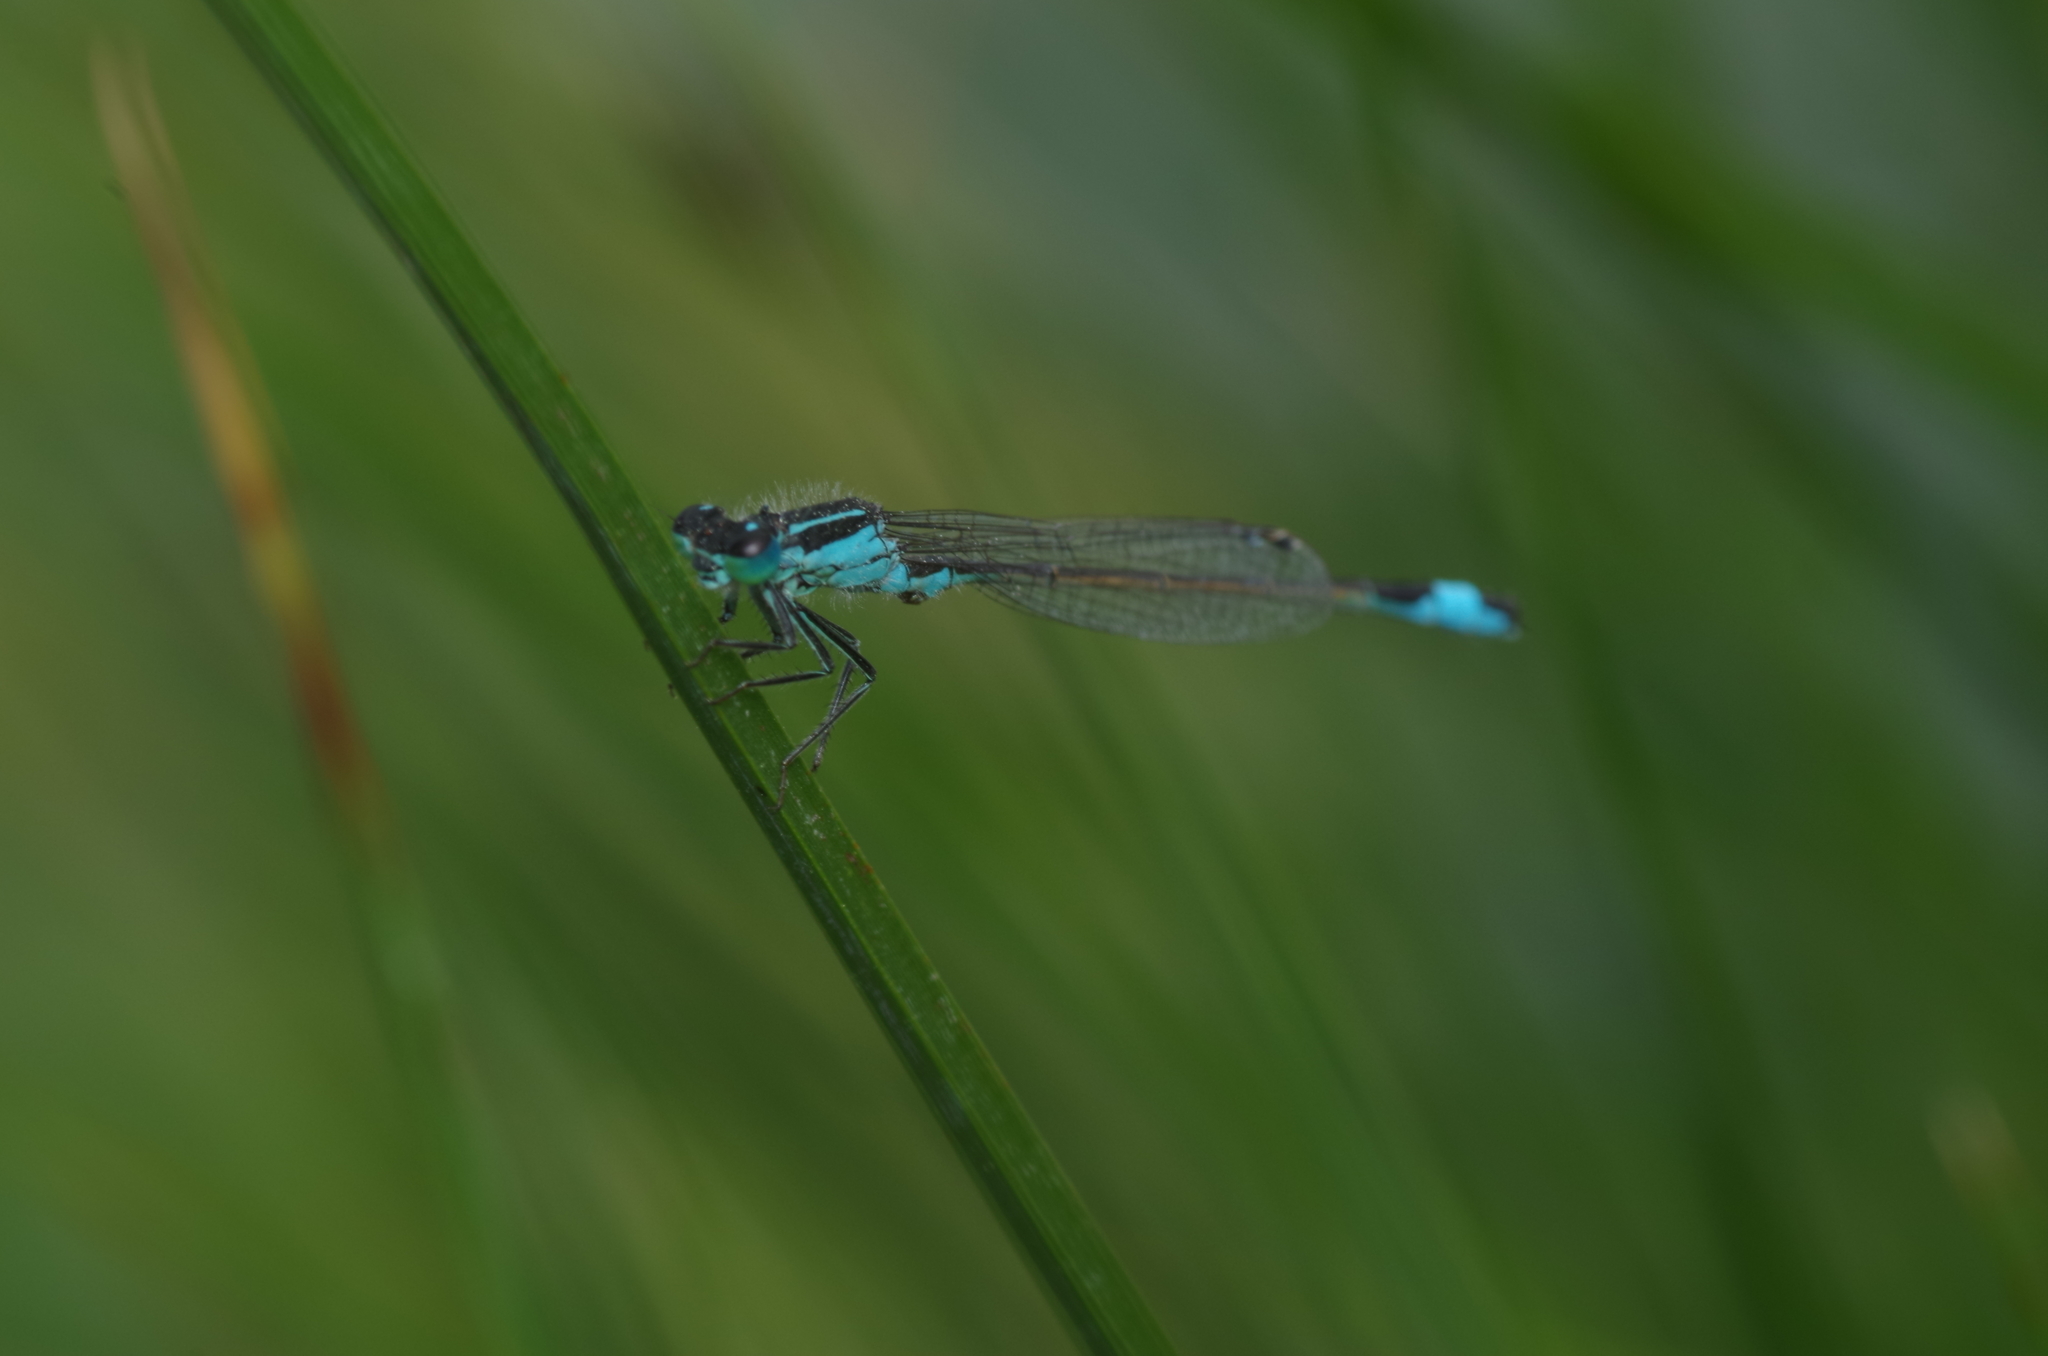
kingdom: Animalia
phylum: Arthropoda
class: Insecta
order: Odonata
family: Coenagrionidae
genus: Ischnura
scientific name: Ischnura elegans
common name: Blue-tailed damselfly
